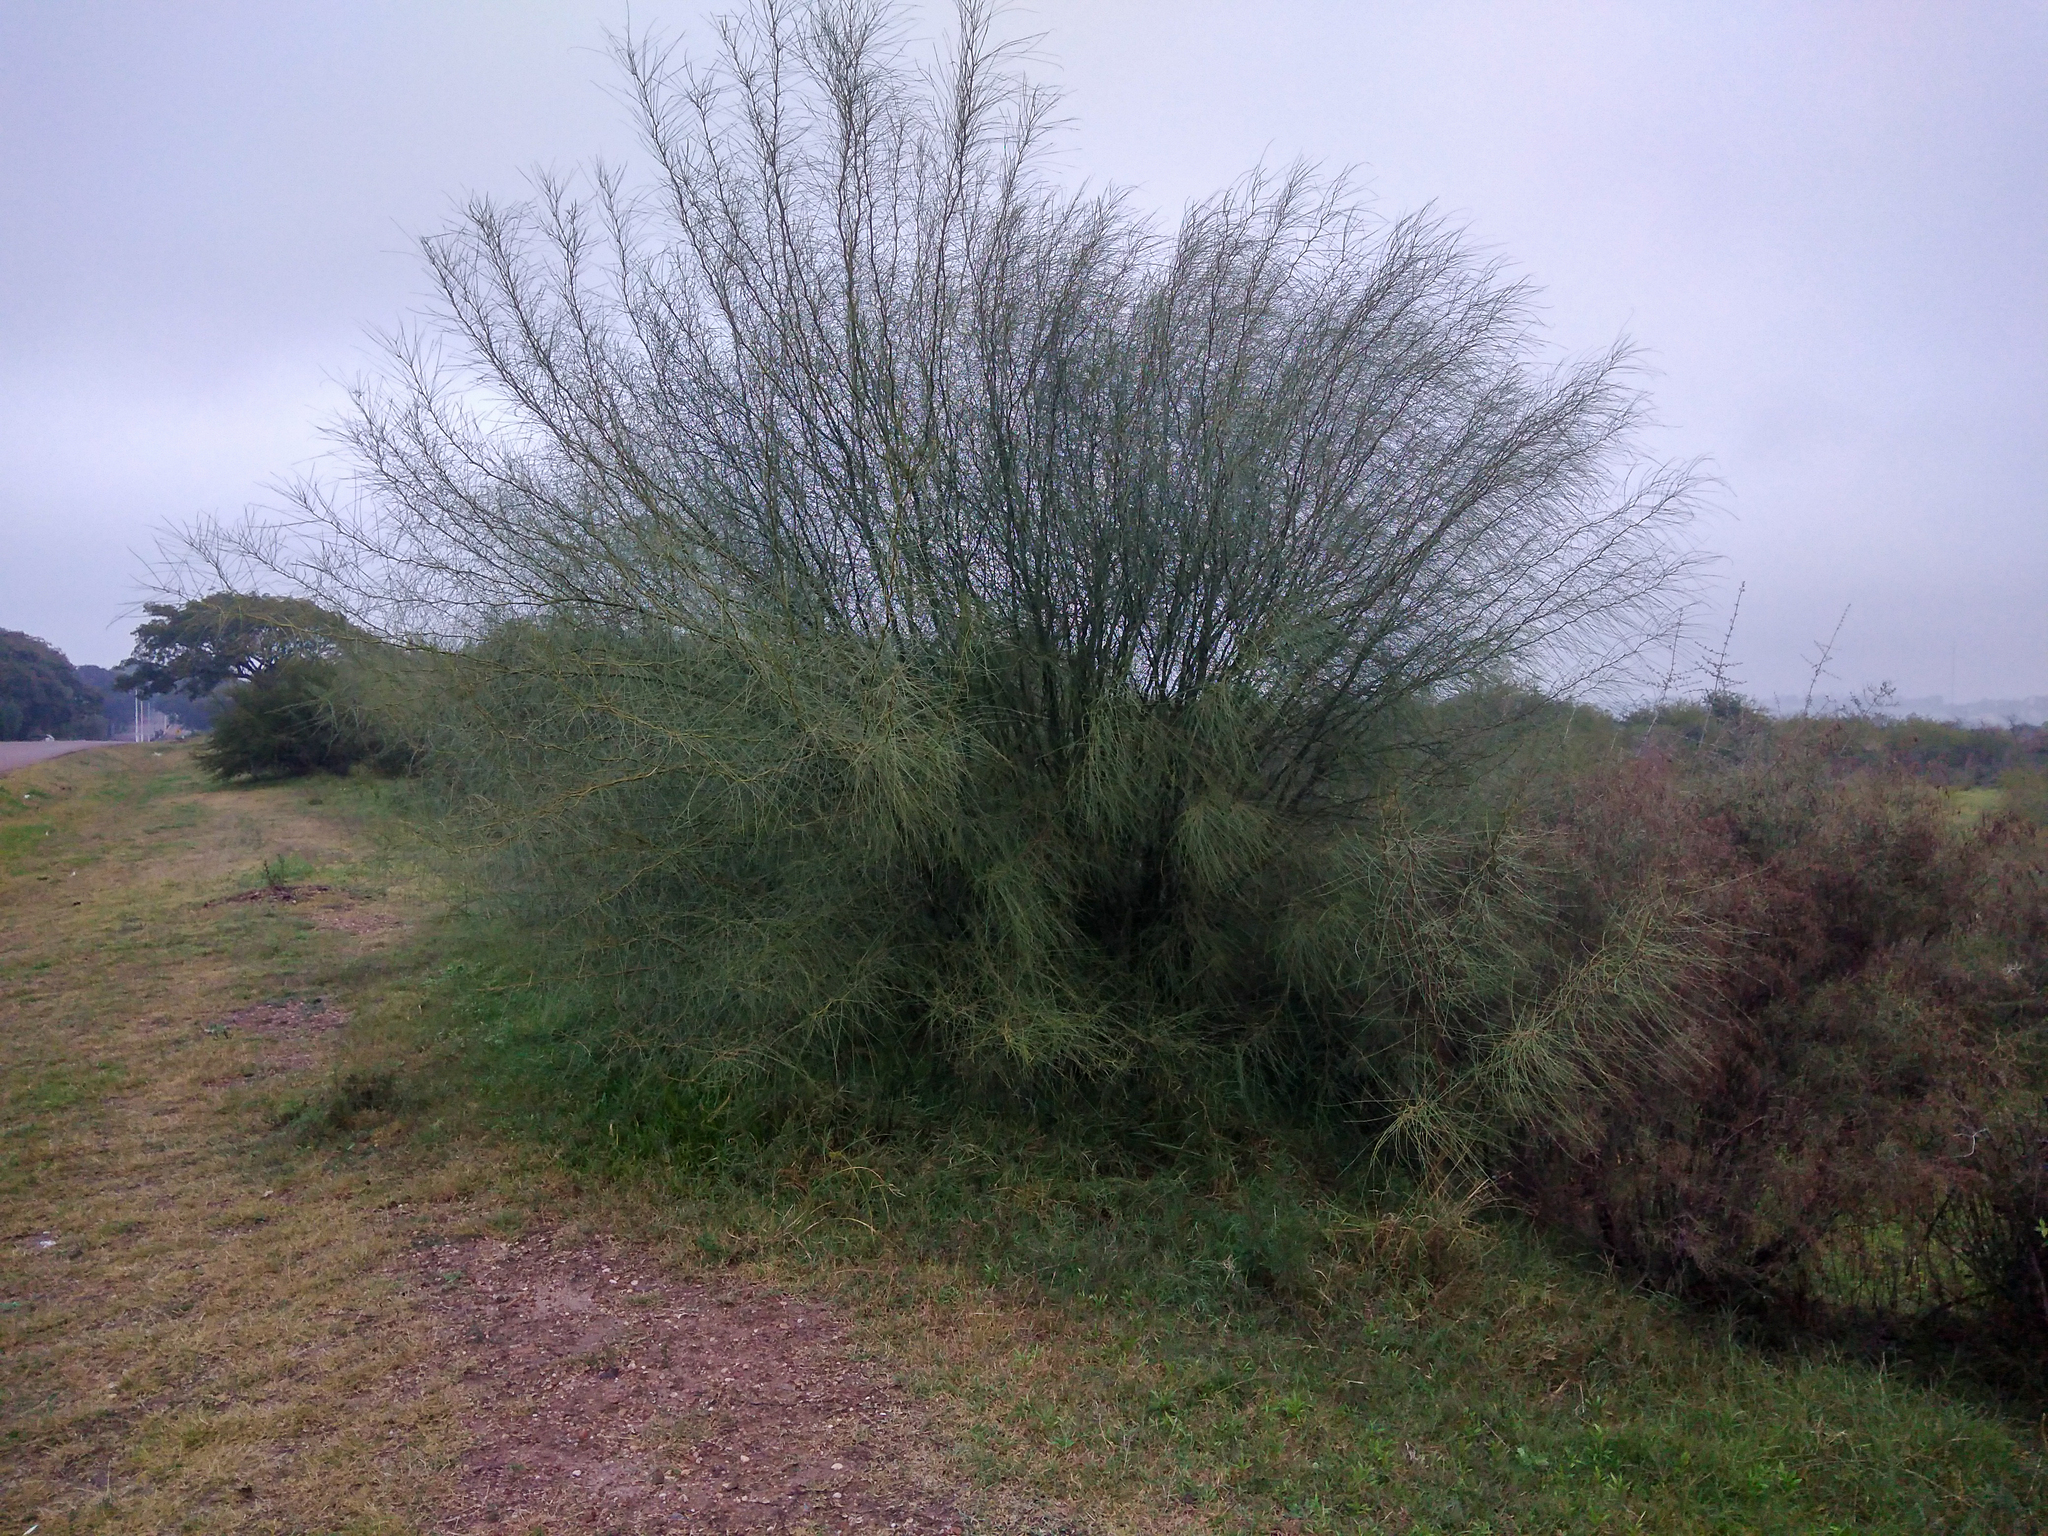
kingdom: Plantae
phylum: Tracheophyta
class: Magnoliopsida
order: Fabales
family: Fabaceae
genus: Parkinsonia
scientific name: Parkinsonia aculeata
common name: Jerusalem thorn
